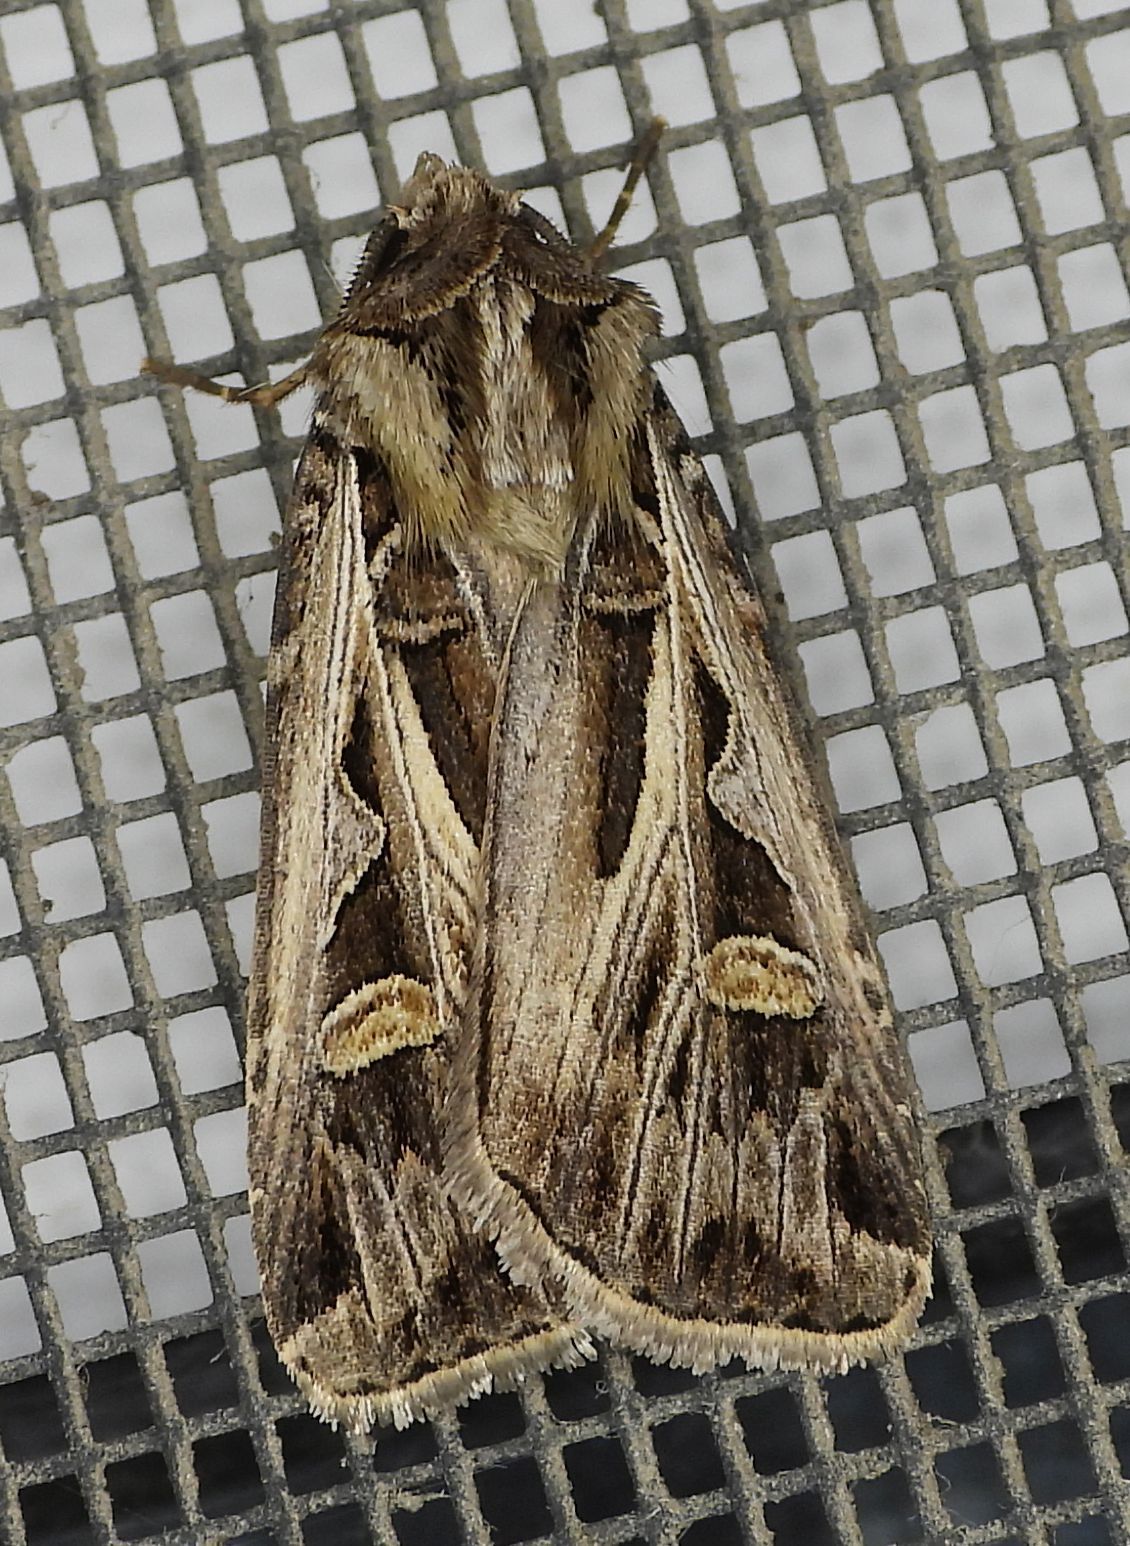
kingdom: Animalia
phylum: Arthropoda
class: Insecta
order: Lepidoptera
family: Noctuidae
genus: Feltia
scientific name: Feltia jaculifera
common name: Dingy cutworm moth
